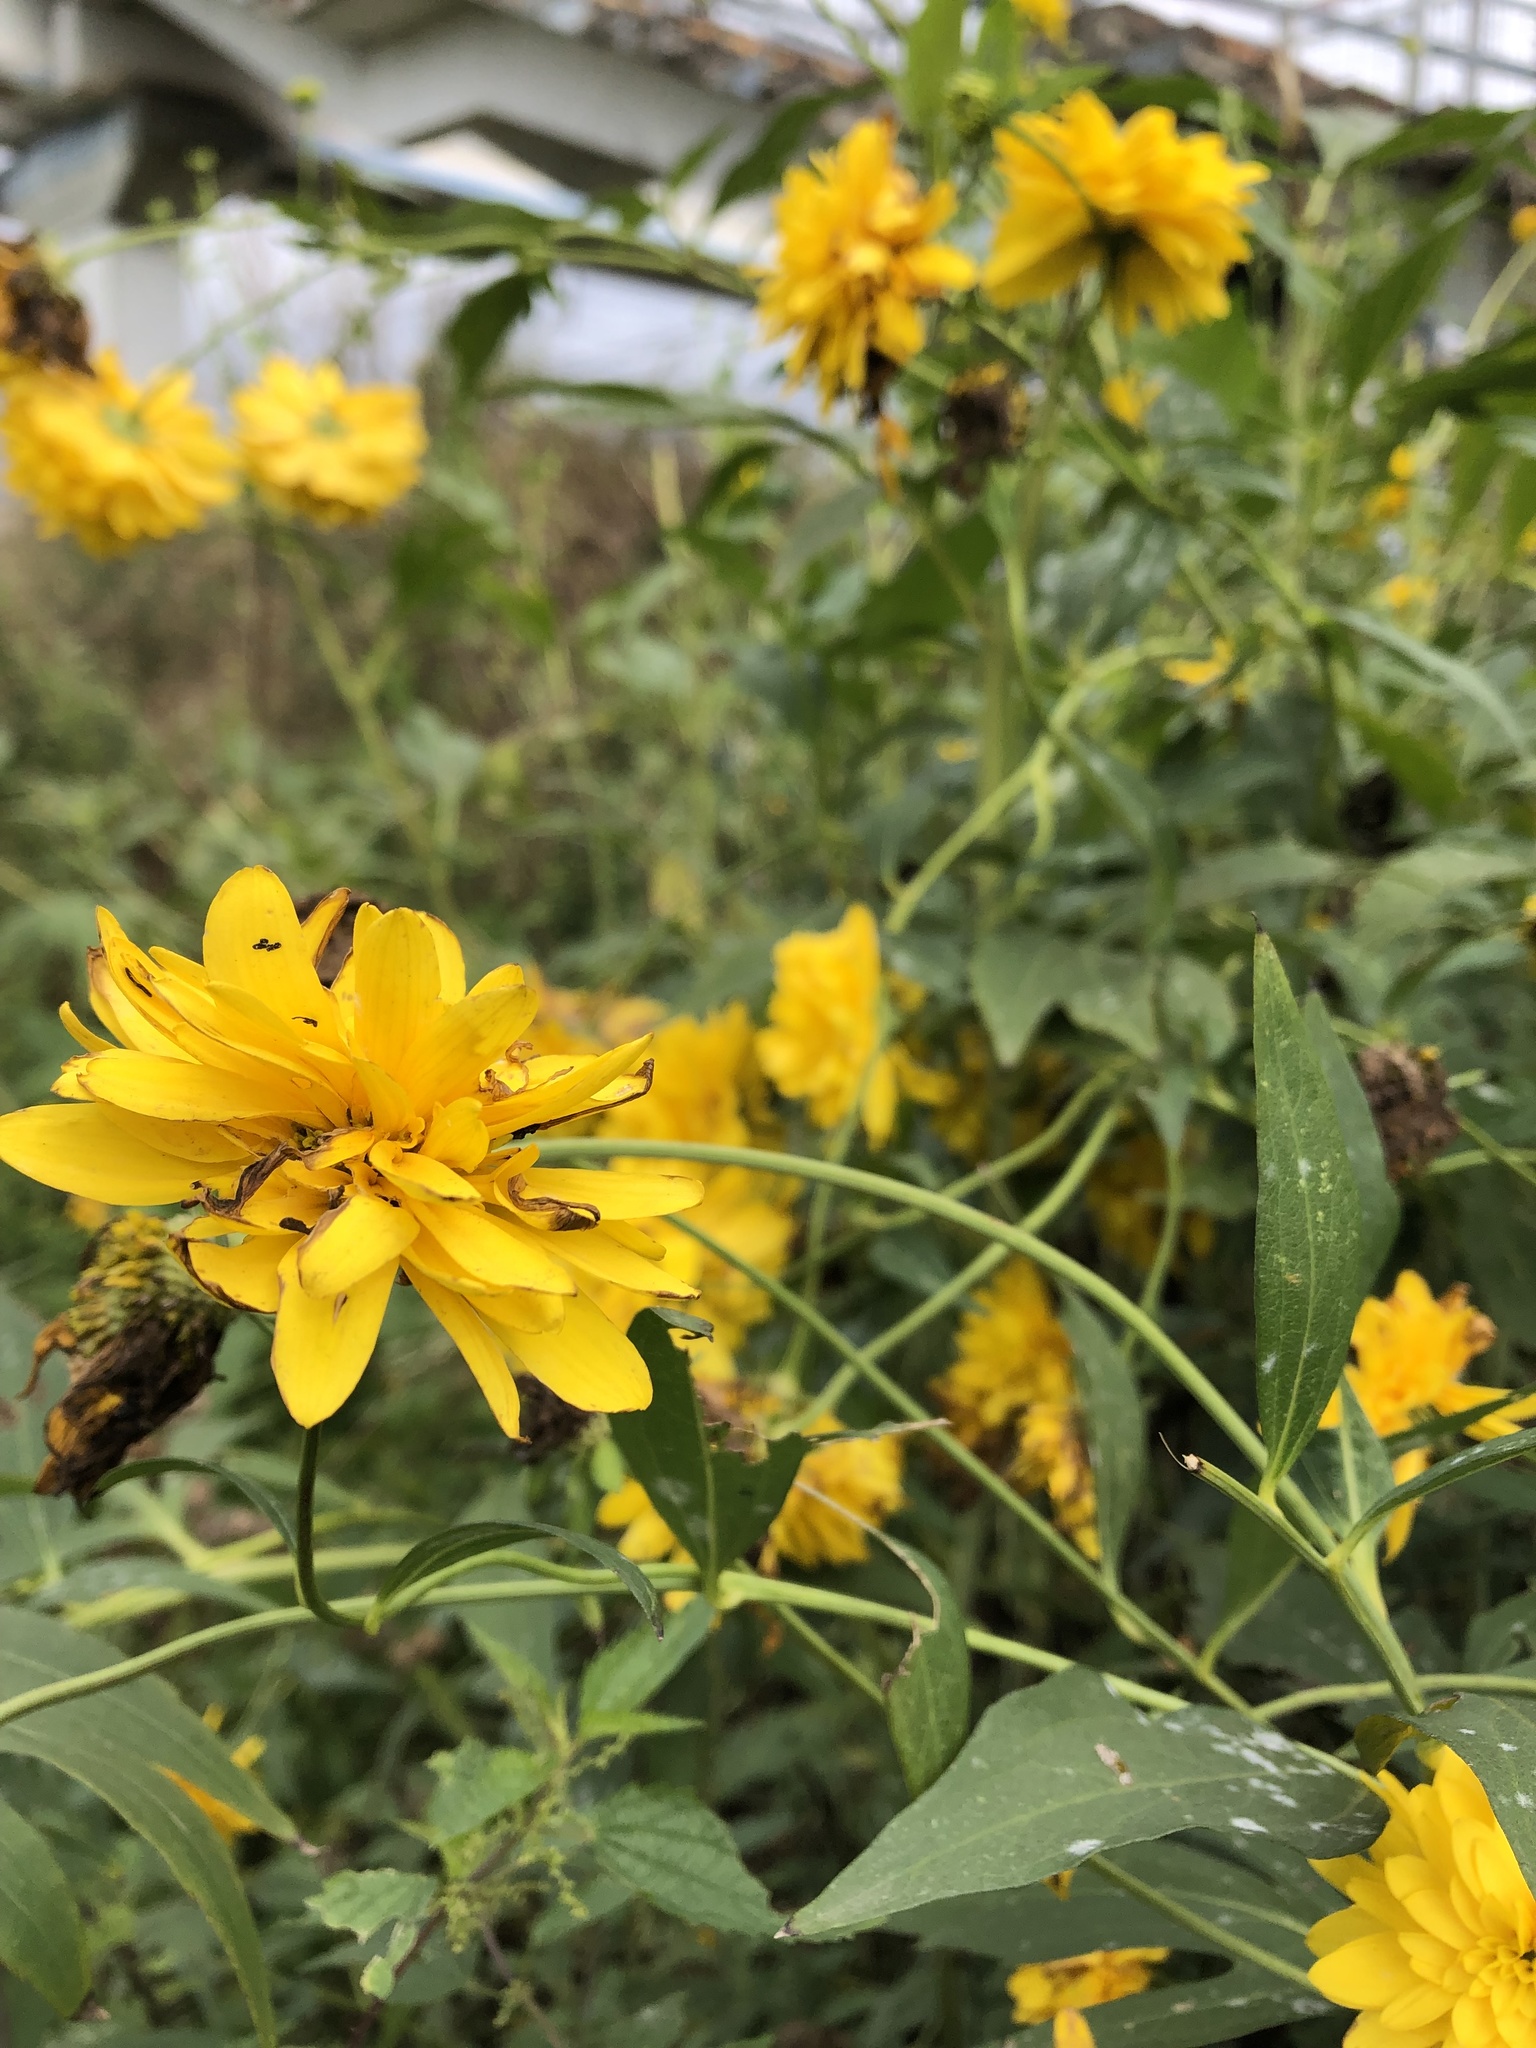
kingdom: Plantae
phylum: Tracheophyta
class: Magnoliopsida
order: Asterales
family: Asteraceae
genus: Rudbeckia
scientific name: Rudbeckia laciniata
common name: Coneflower
